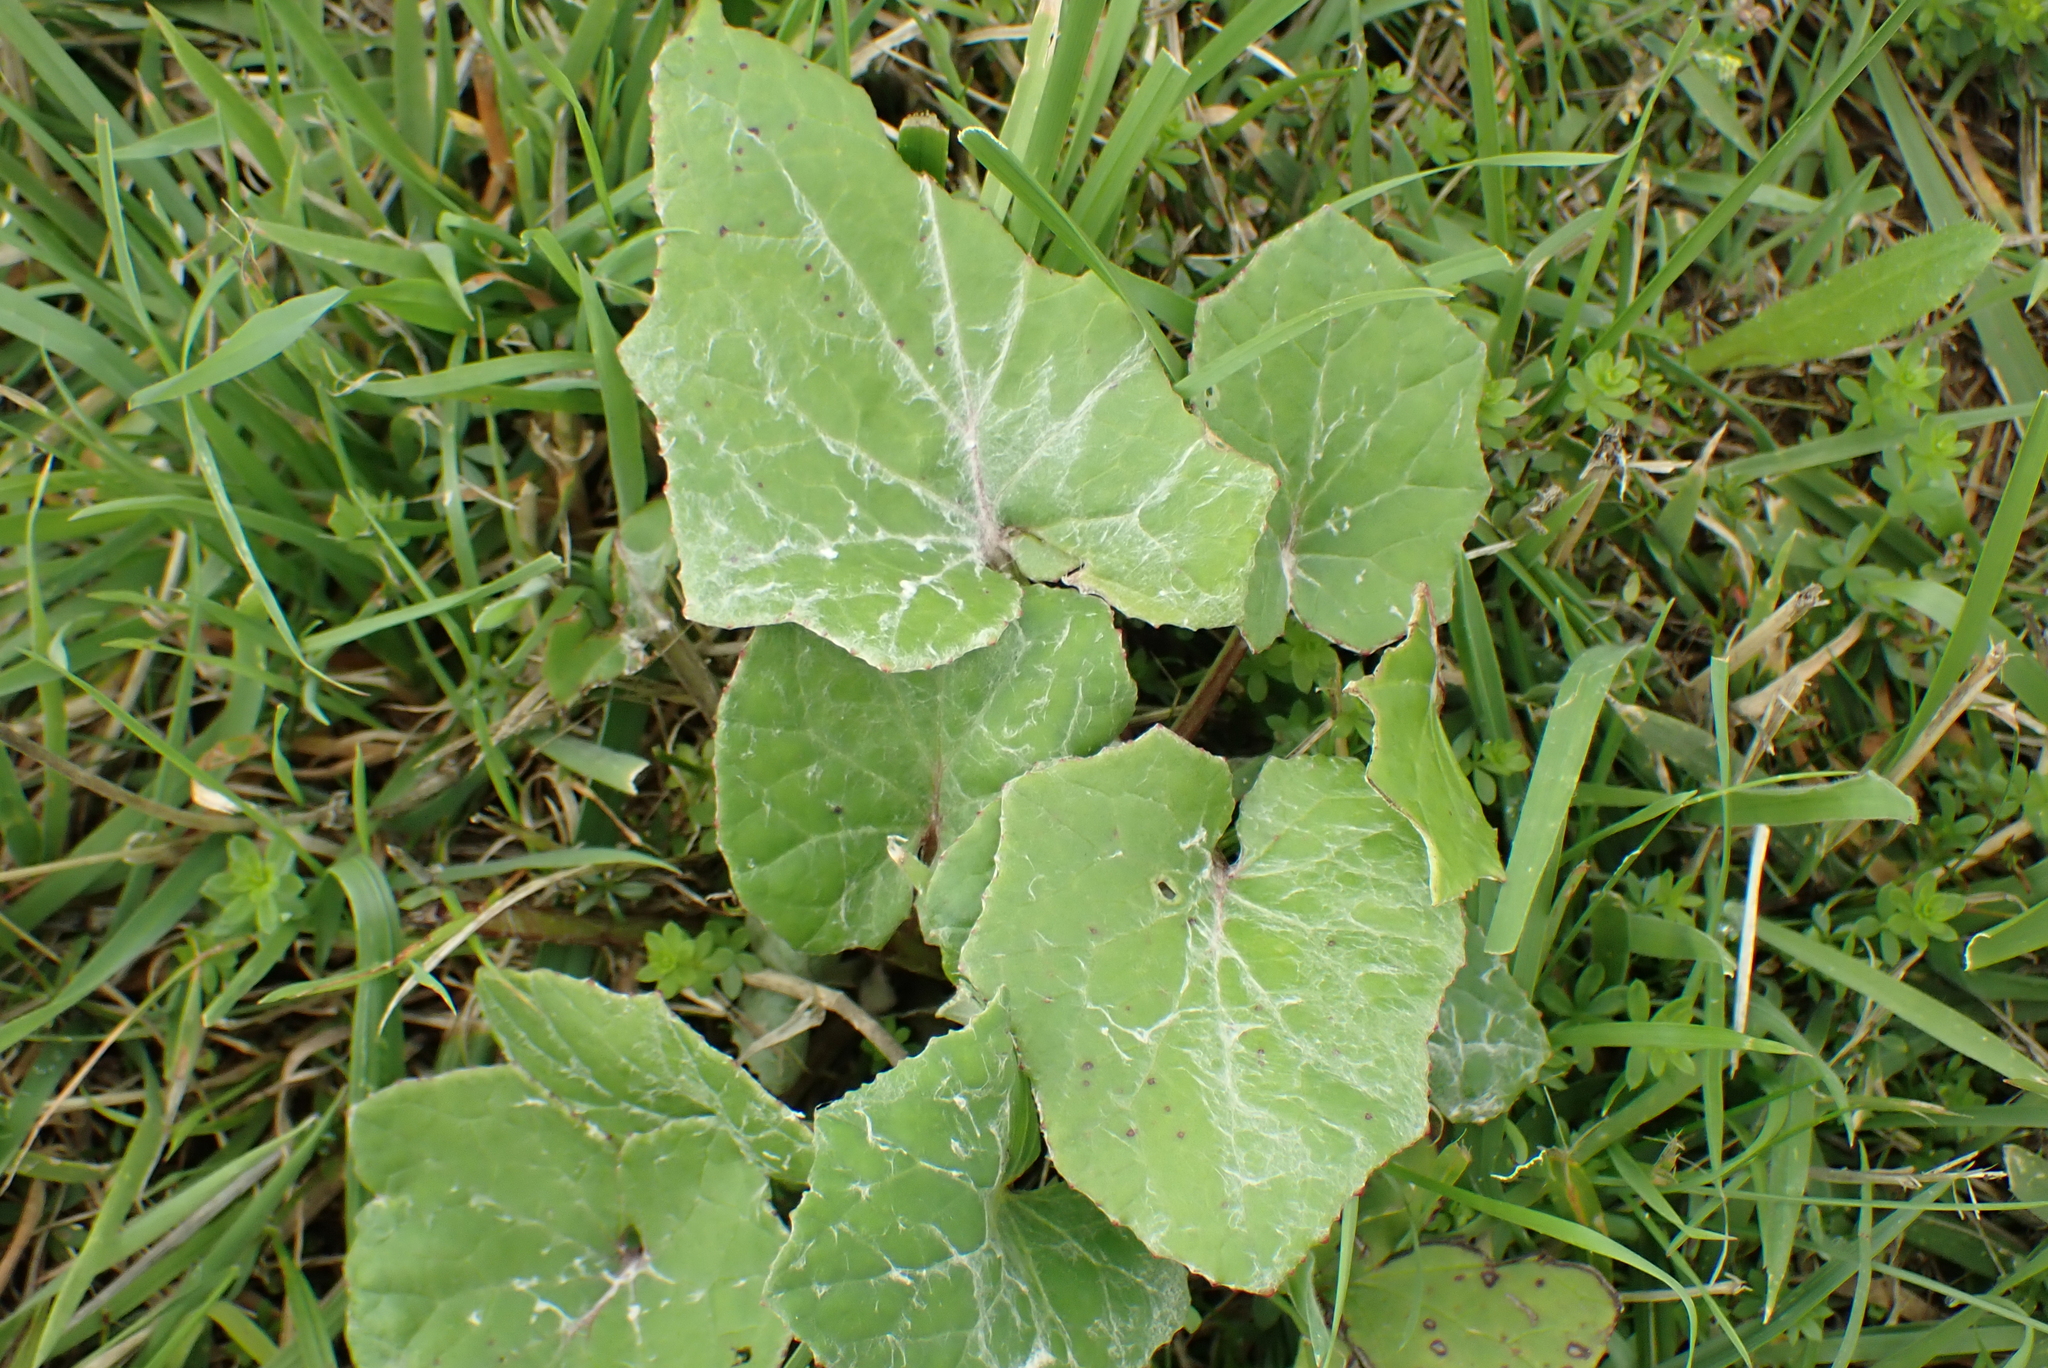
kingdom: Plantae
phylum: Tracheophyta
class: Magnoliopsida
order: Asterales
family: Asteraceae
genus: Tussilago
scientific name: Tussilago farfara
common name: Coltsfoot
